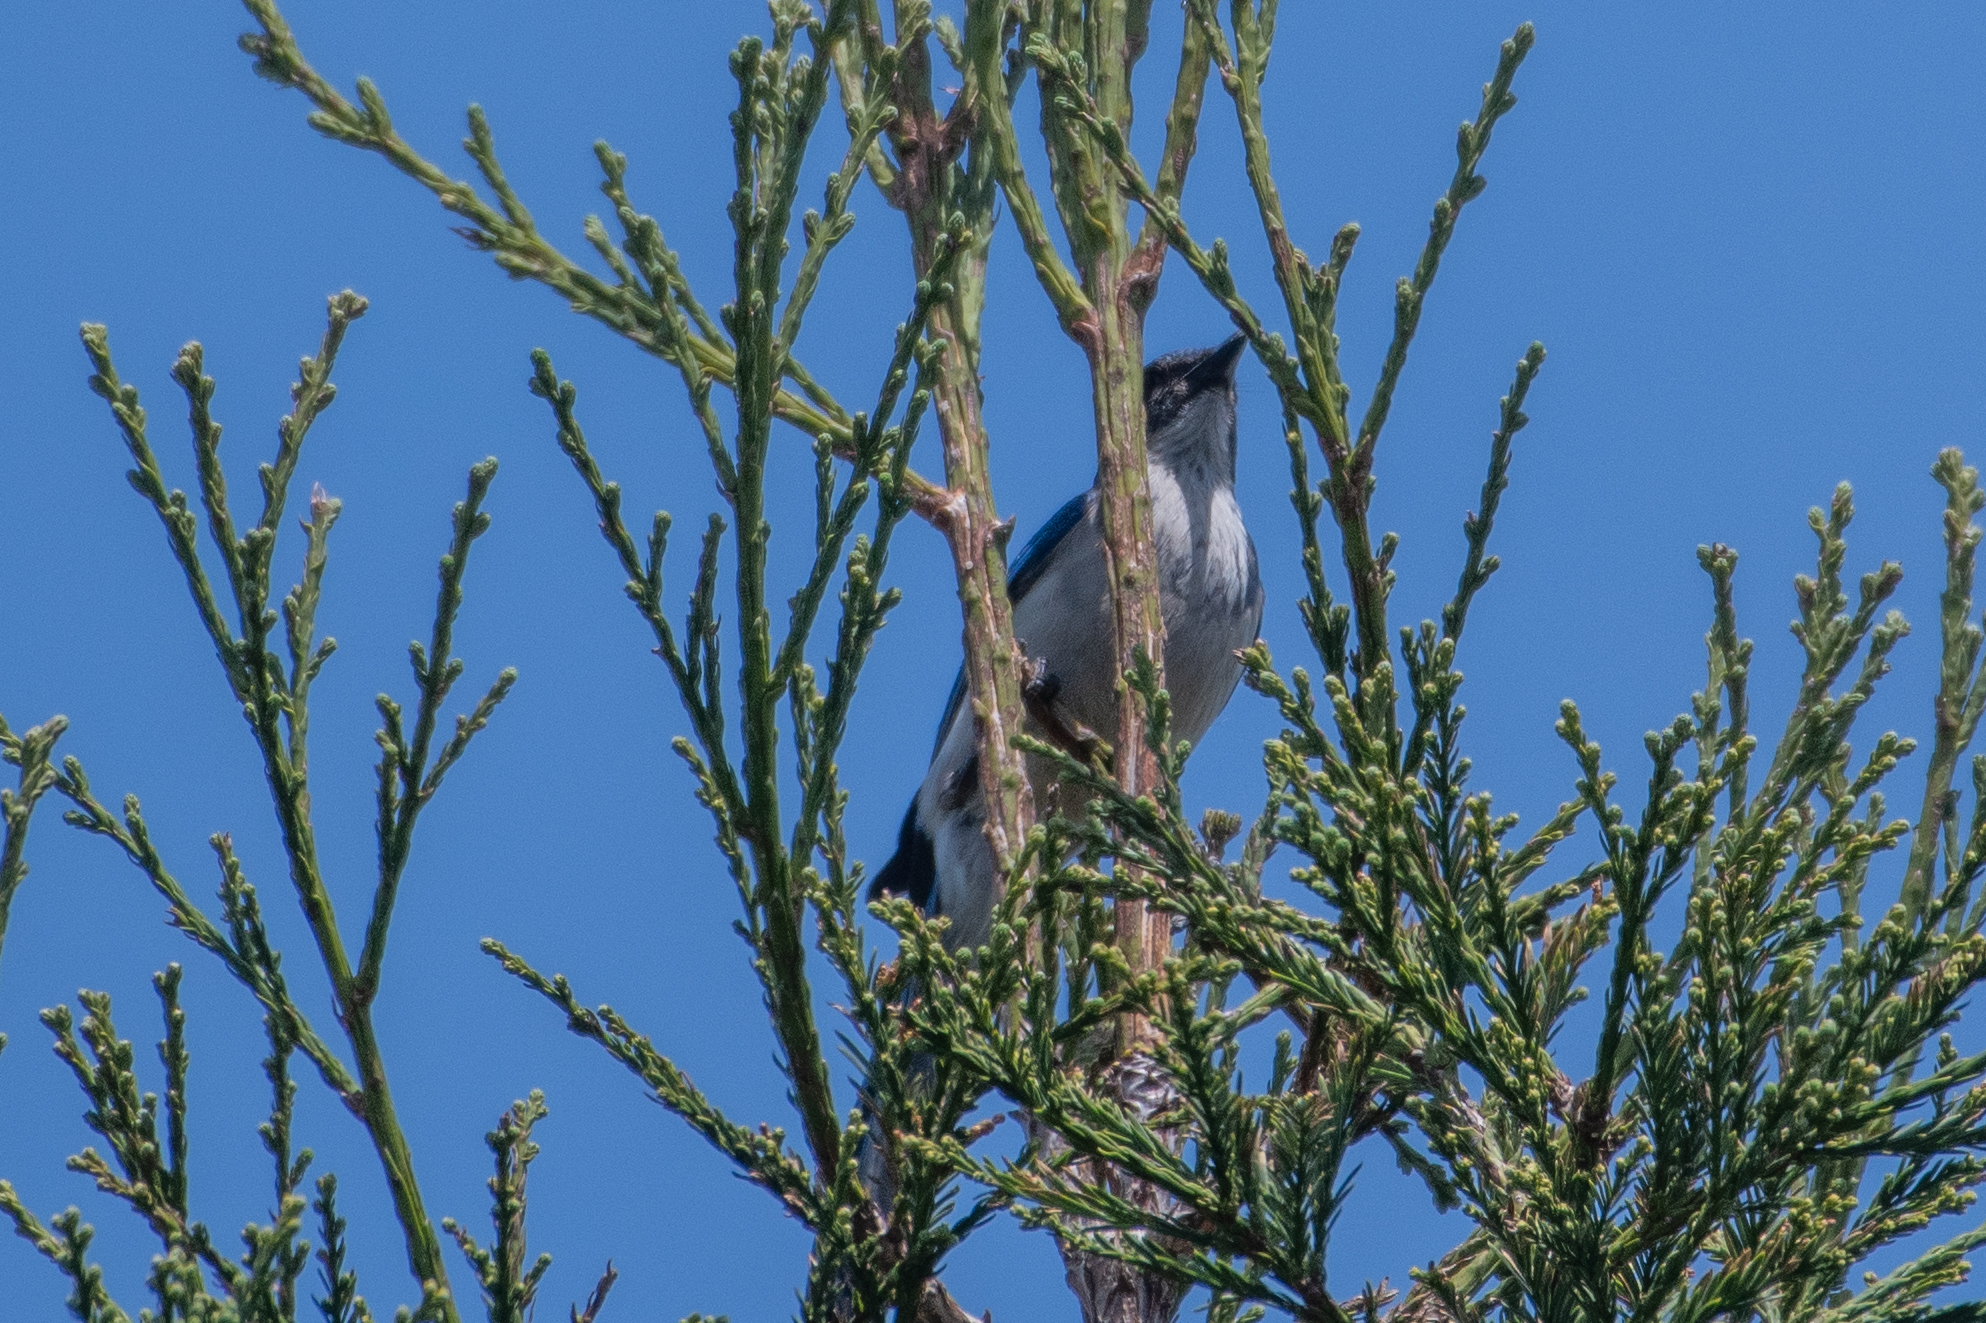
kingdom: Animalia
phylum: Chordata
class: Aves
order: Passeriformes
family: Corvidae
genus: Aphelocoma
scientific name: Aphelocoma californica
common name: California scrub-jay
